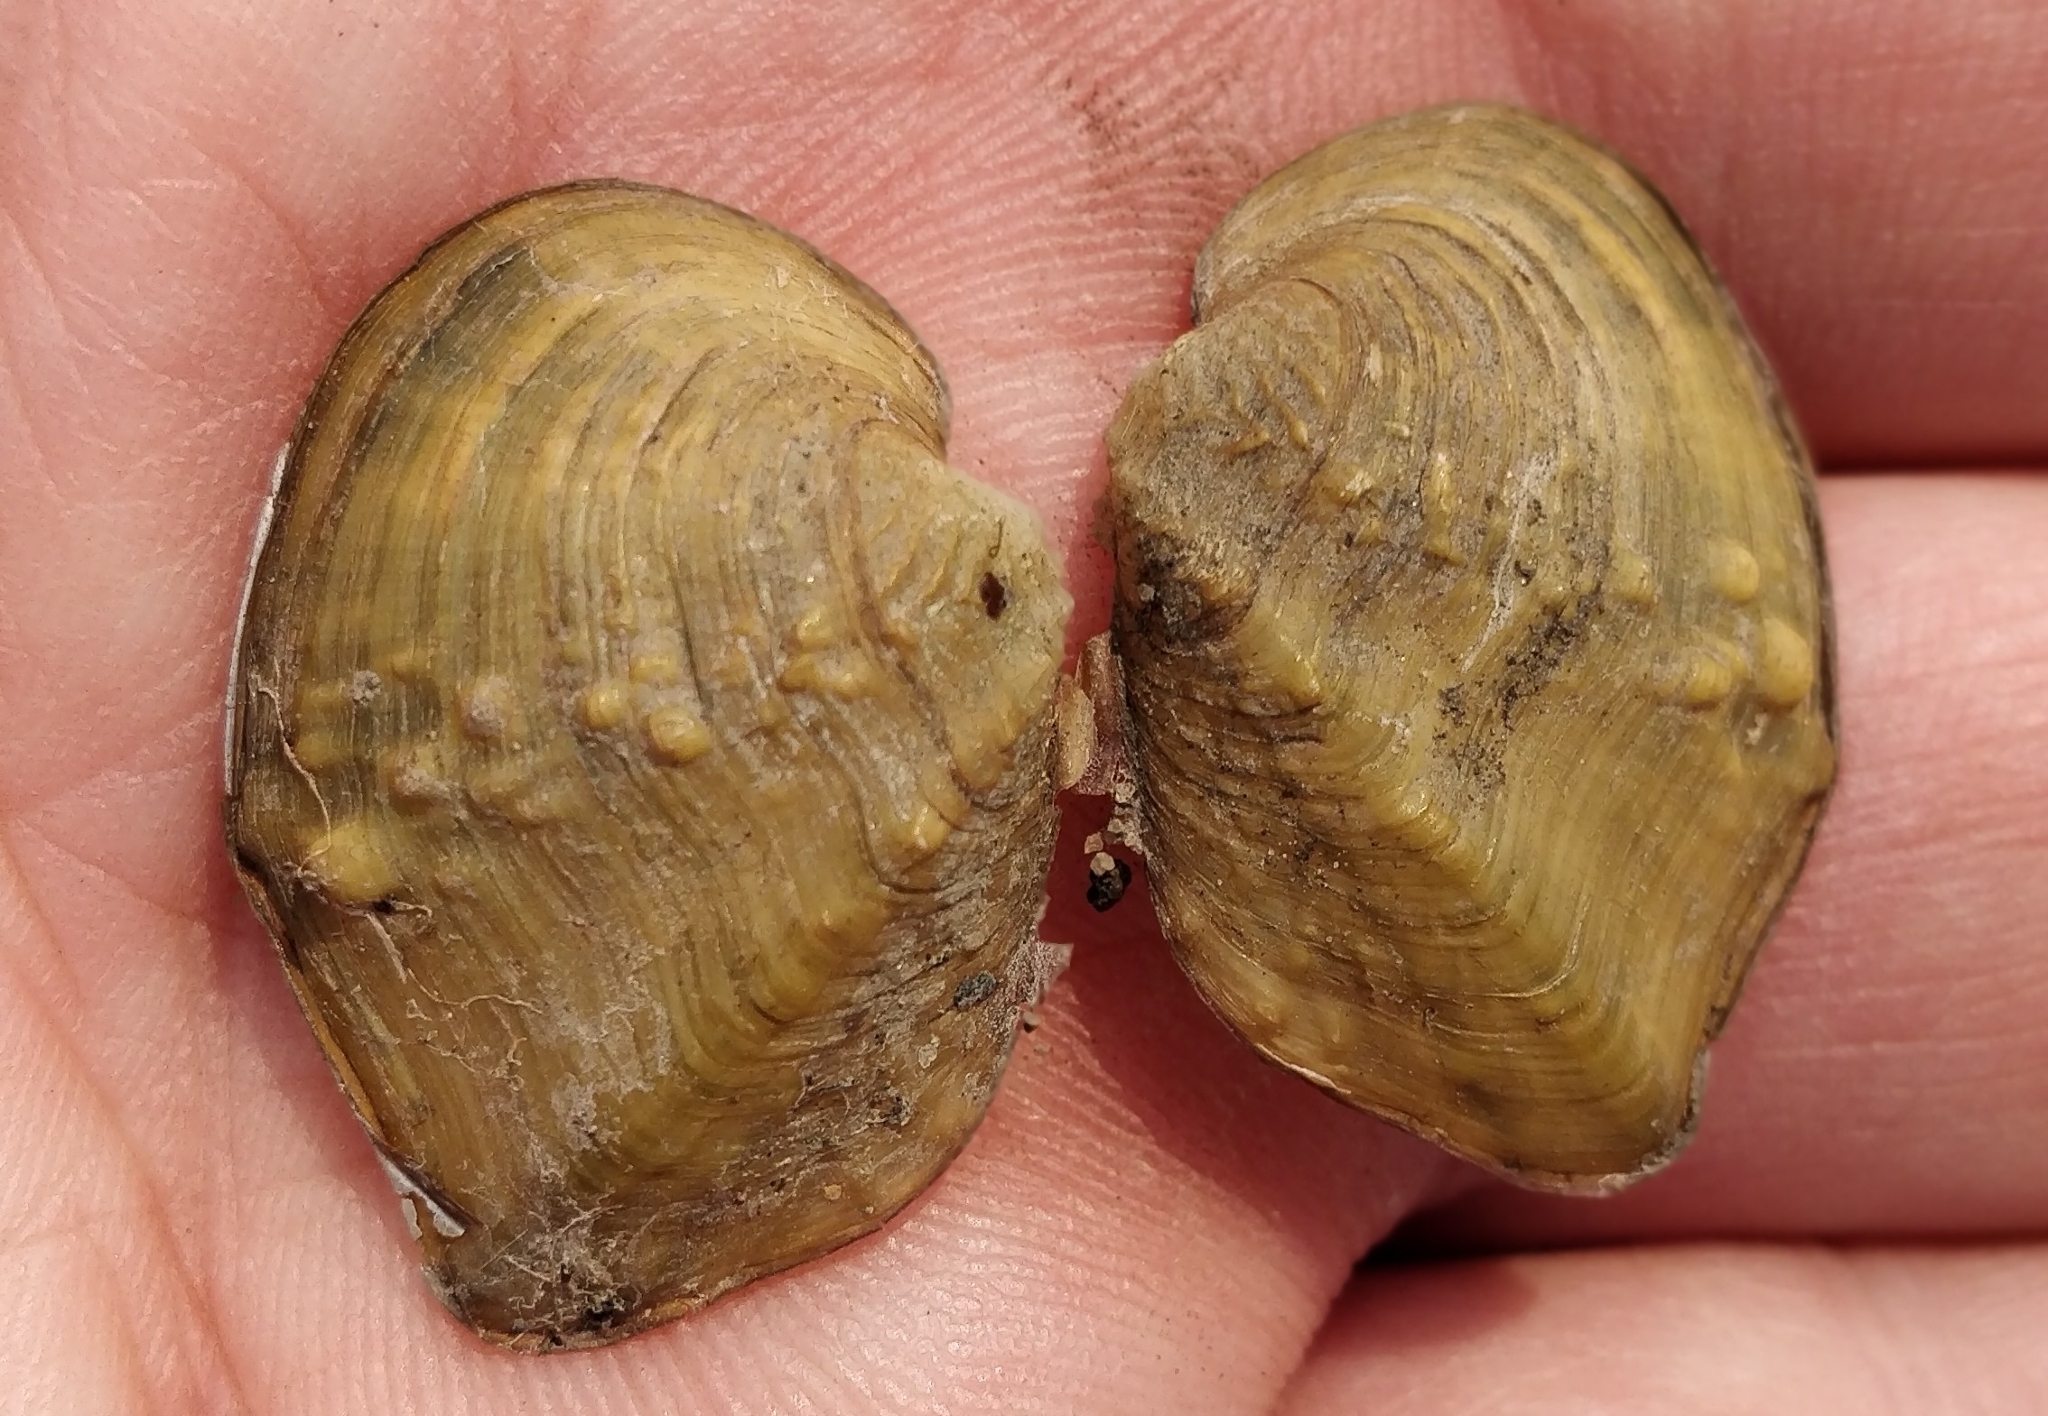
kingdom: Animalia
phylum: Mollusca
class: Bivalvia
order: Unionida
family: Unionidae
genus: Quadrula
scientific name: Quadrula quadrula
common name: Mapleleaf
